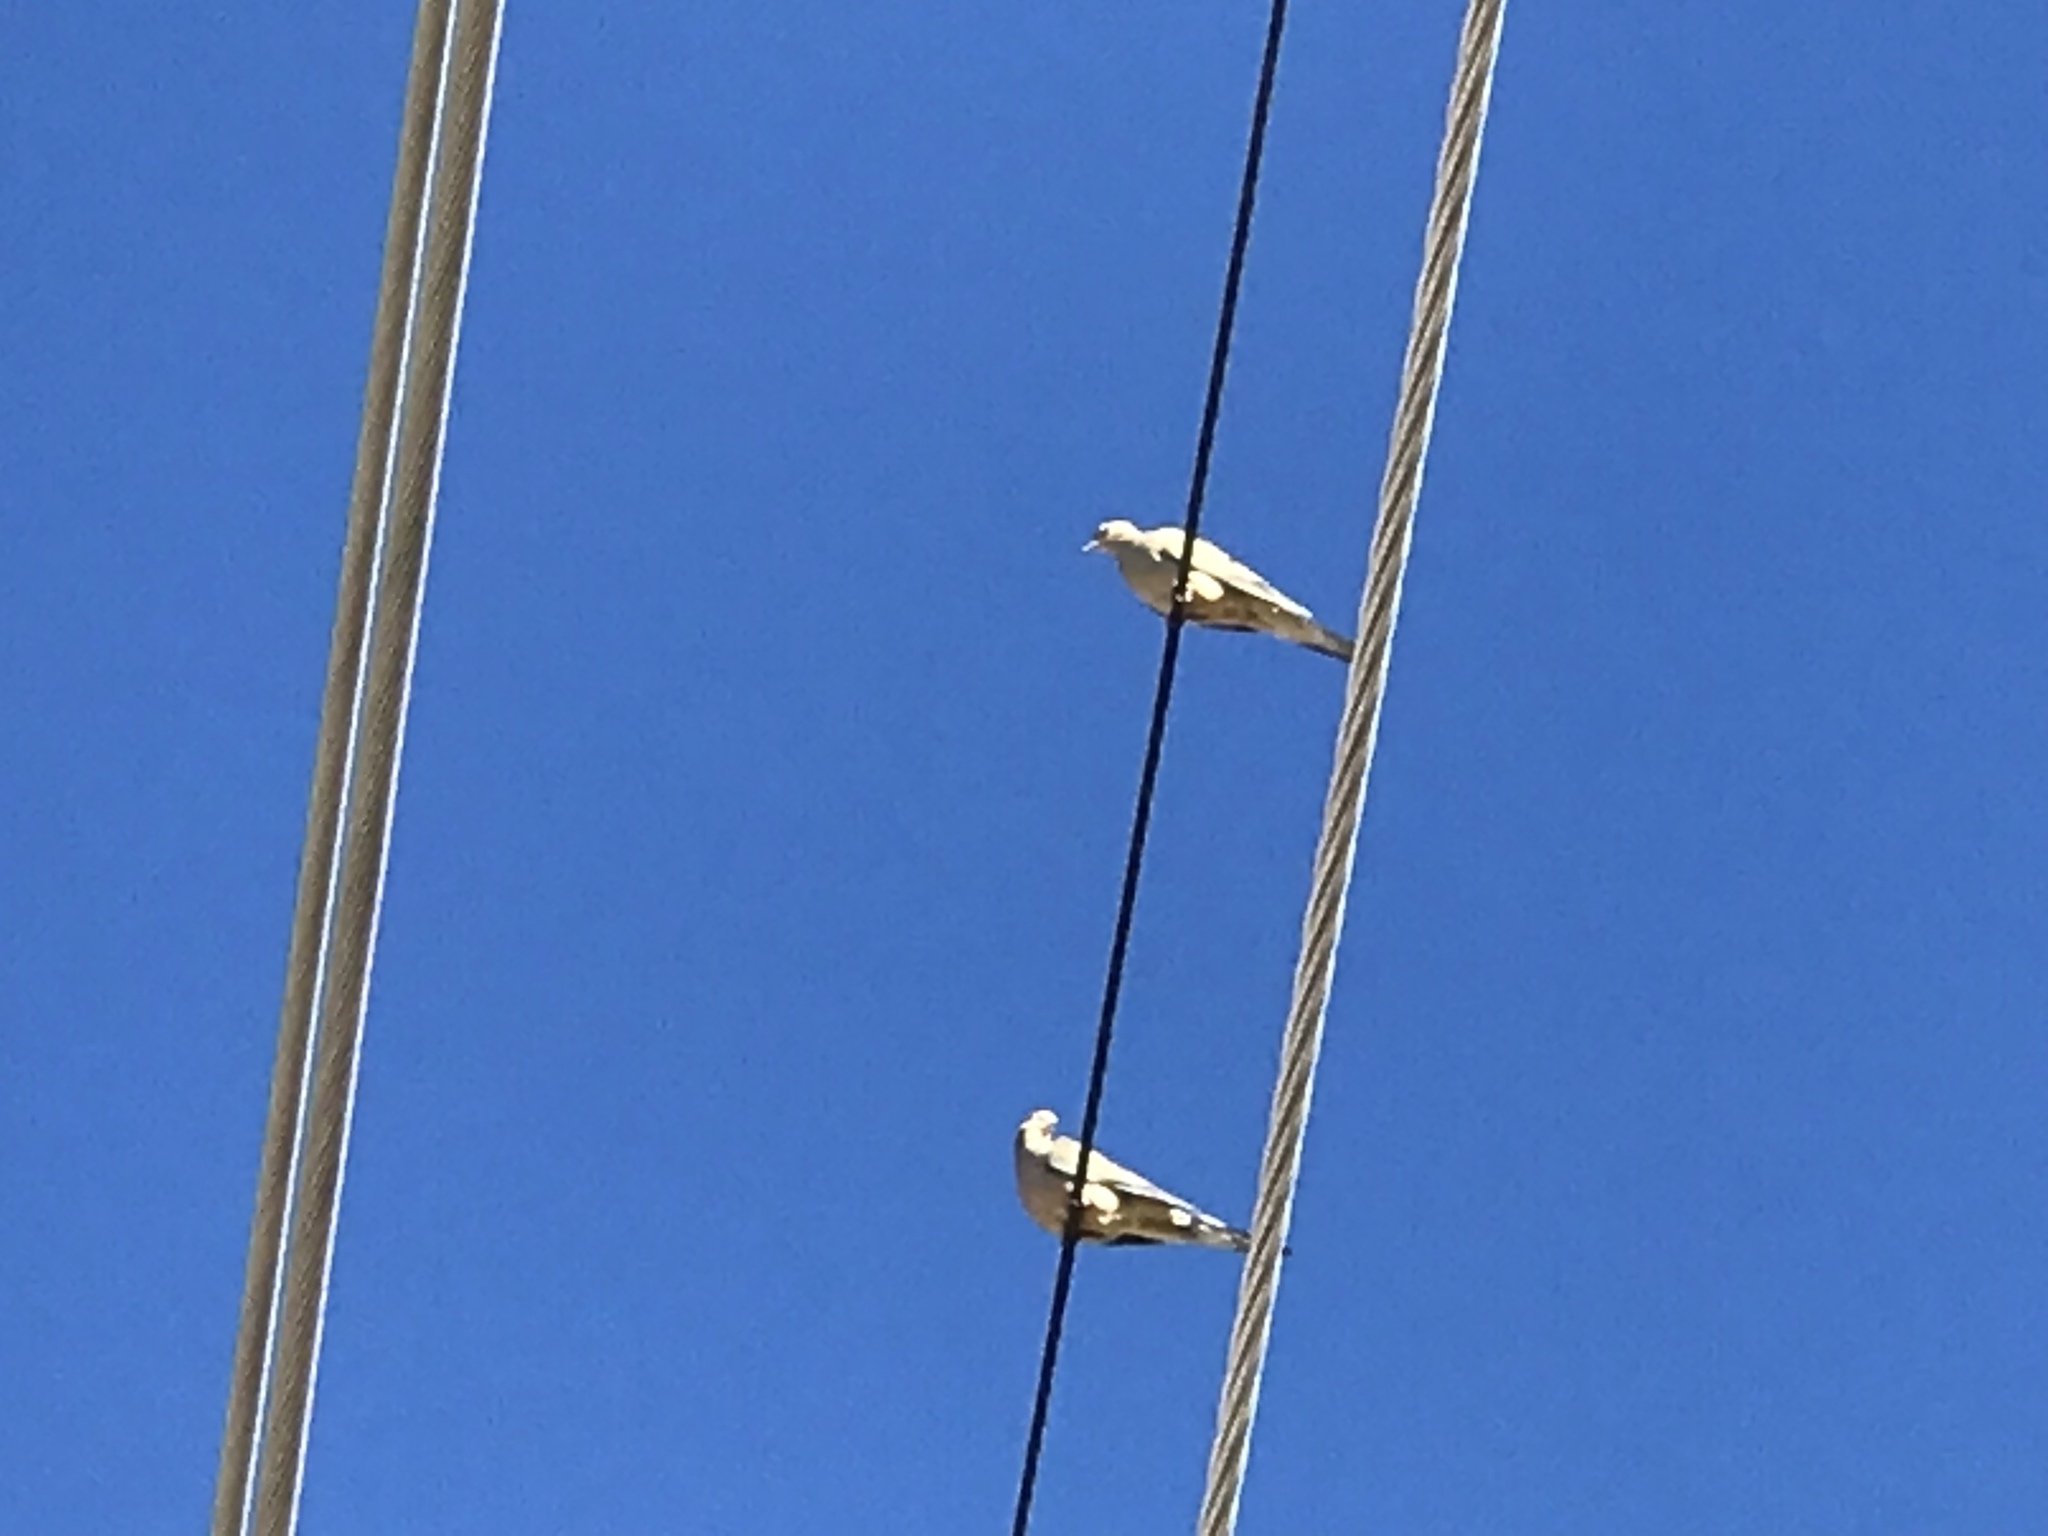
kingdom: Animalia
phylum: Chordata
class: Aves
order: Columbiformes
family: Columbidae
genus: Zenaida
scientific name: Zenaida macroura
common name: Mourning dove
